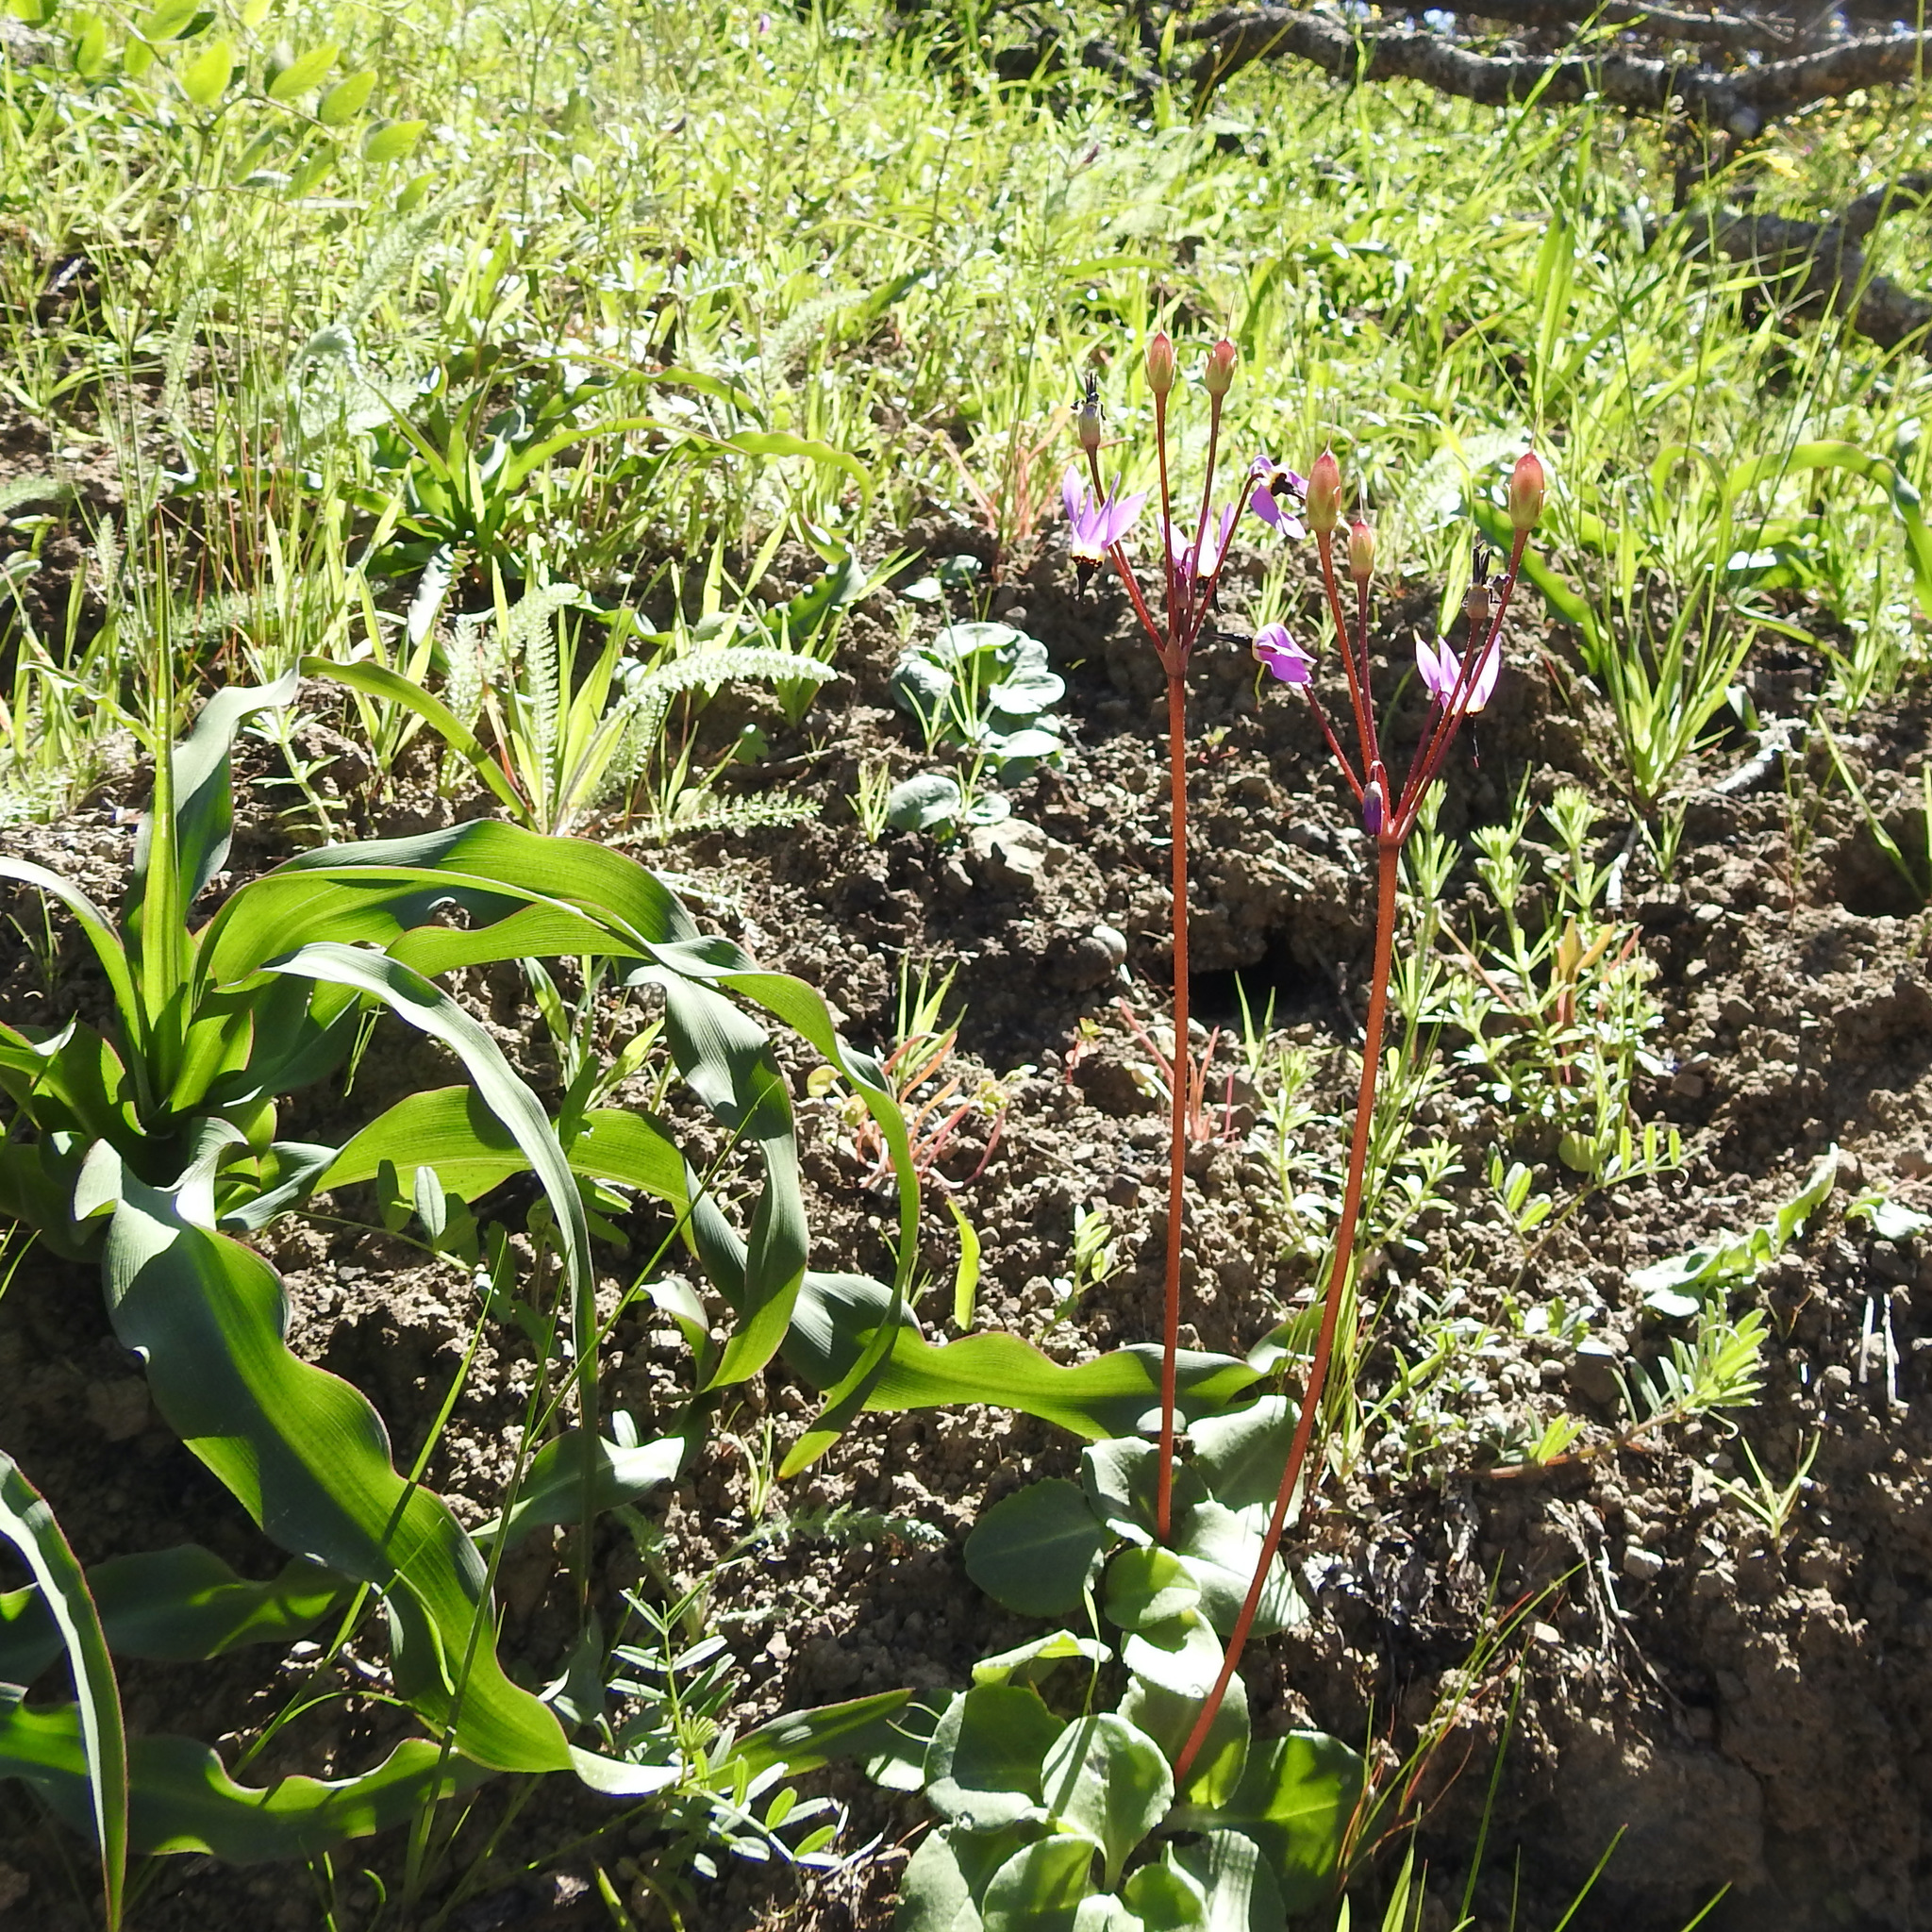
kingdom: Plantae
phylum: Tracheophyta
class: Liliopsida
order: Asparagales
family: Asparagaceae
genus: Chlorogalum
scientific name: Chlorogalum pomeridianum
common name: Amole
